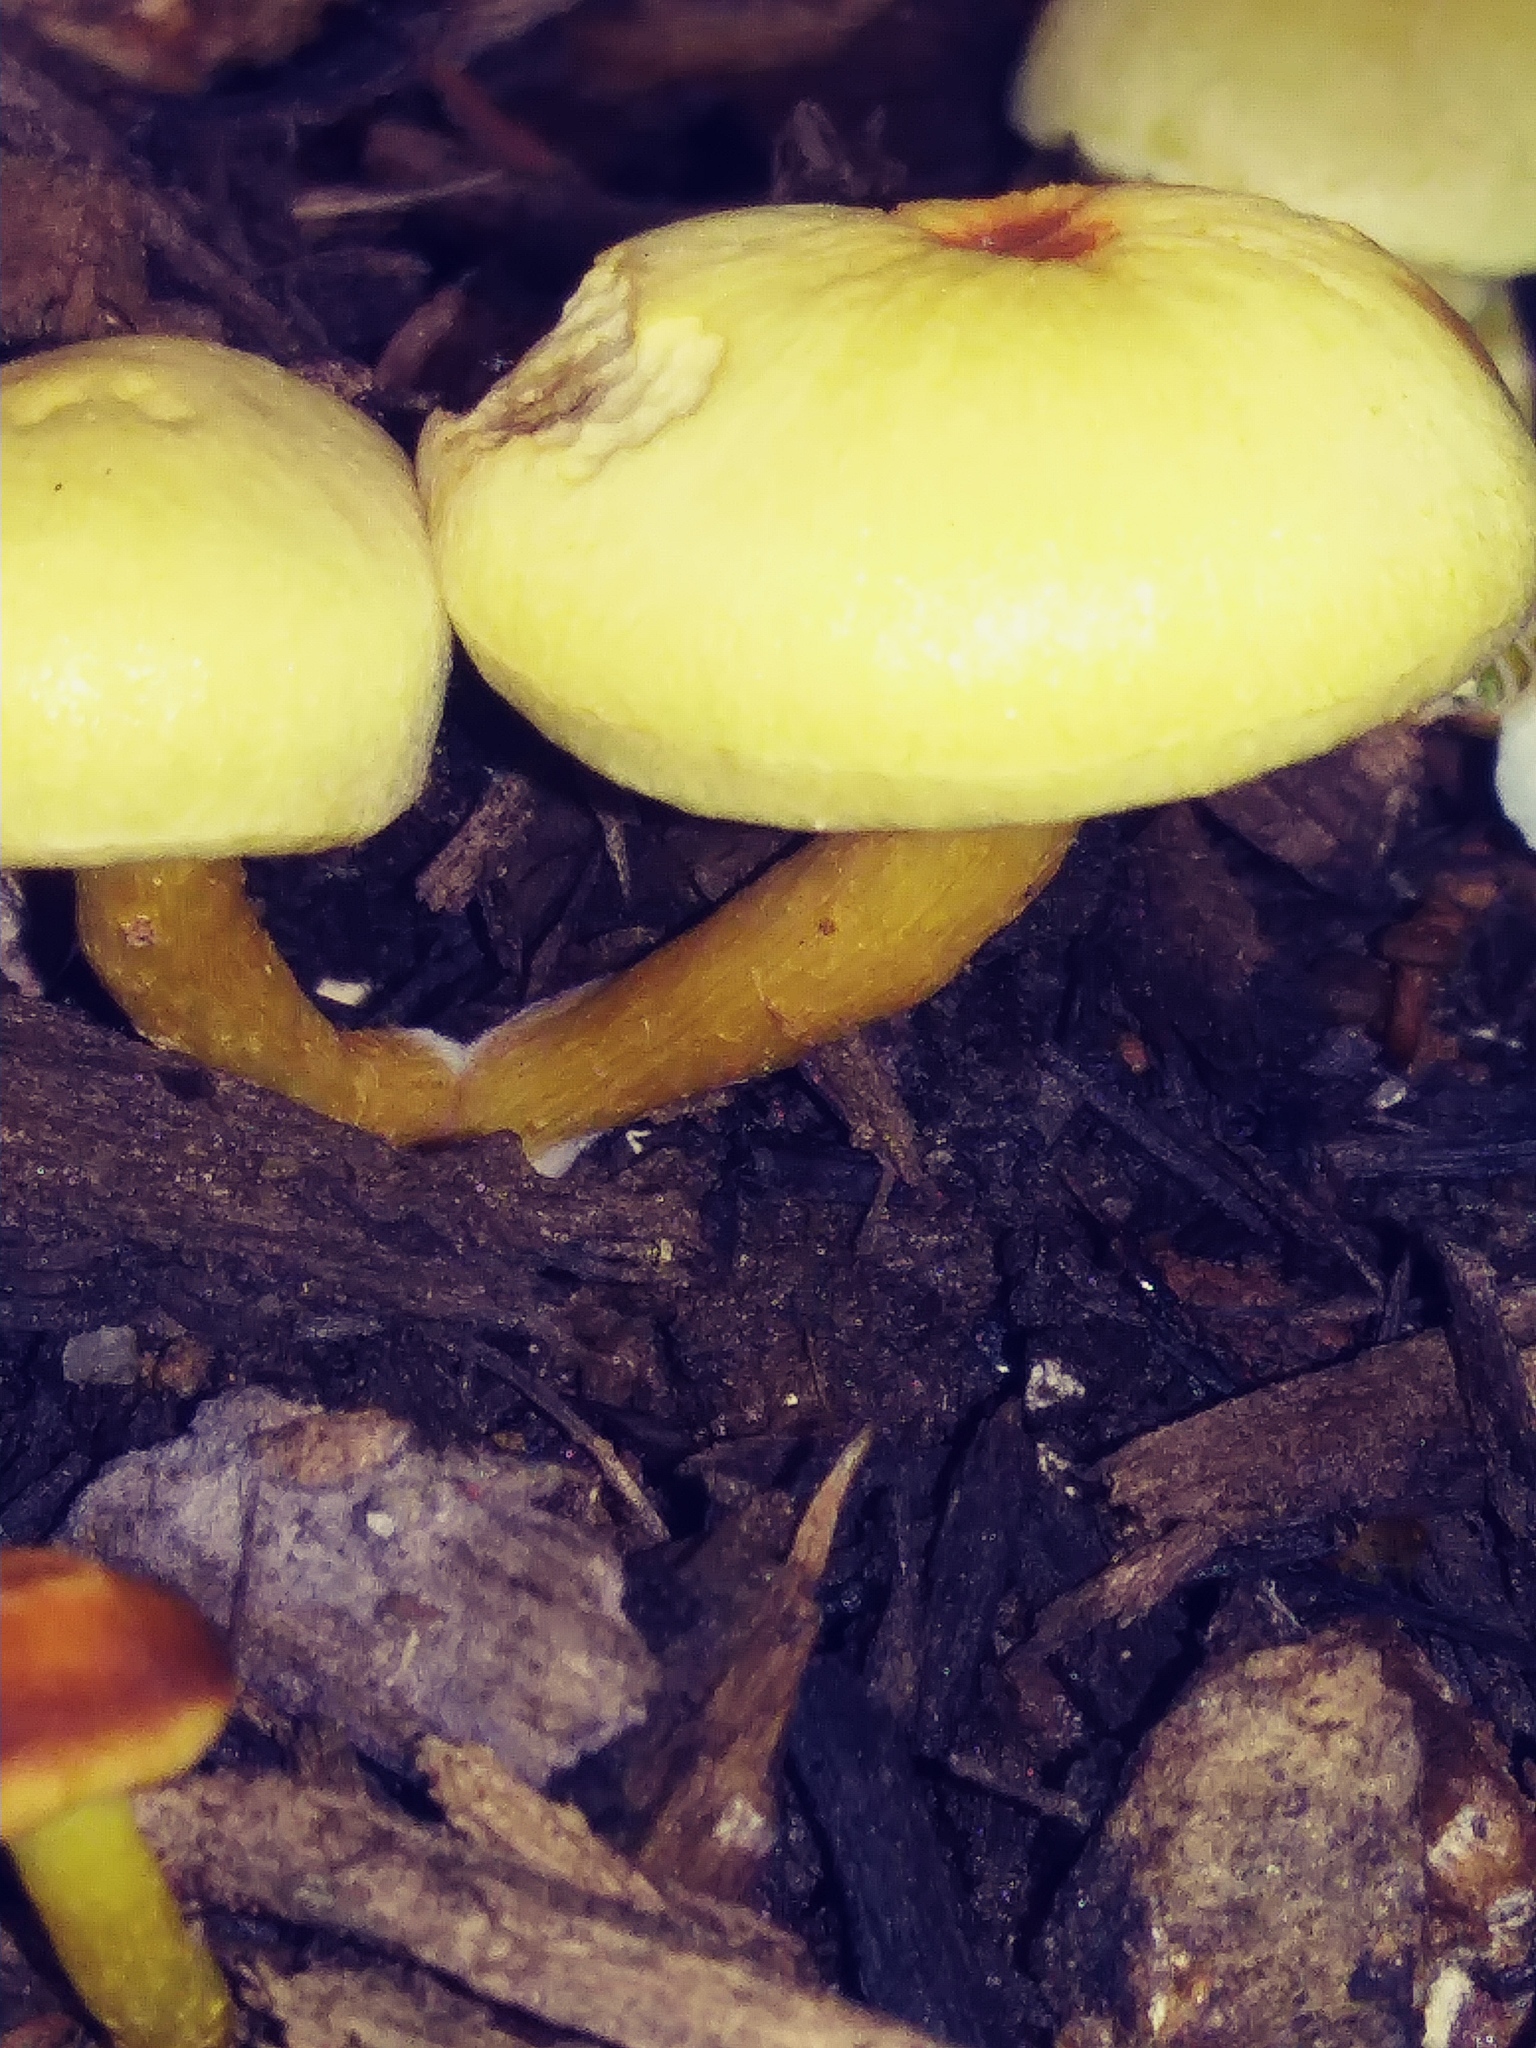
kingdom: Fungi
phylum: Basidiomycota
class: Agaricomycetes
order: Agaricales
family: Strophariaceae
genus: Hypholoma
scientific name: Hypholoma fasciculare
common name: Sulphur tuft
